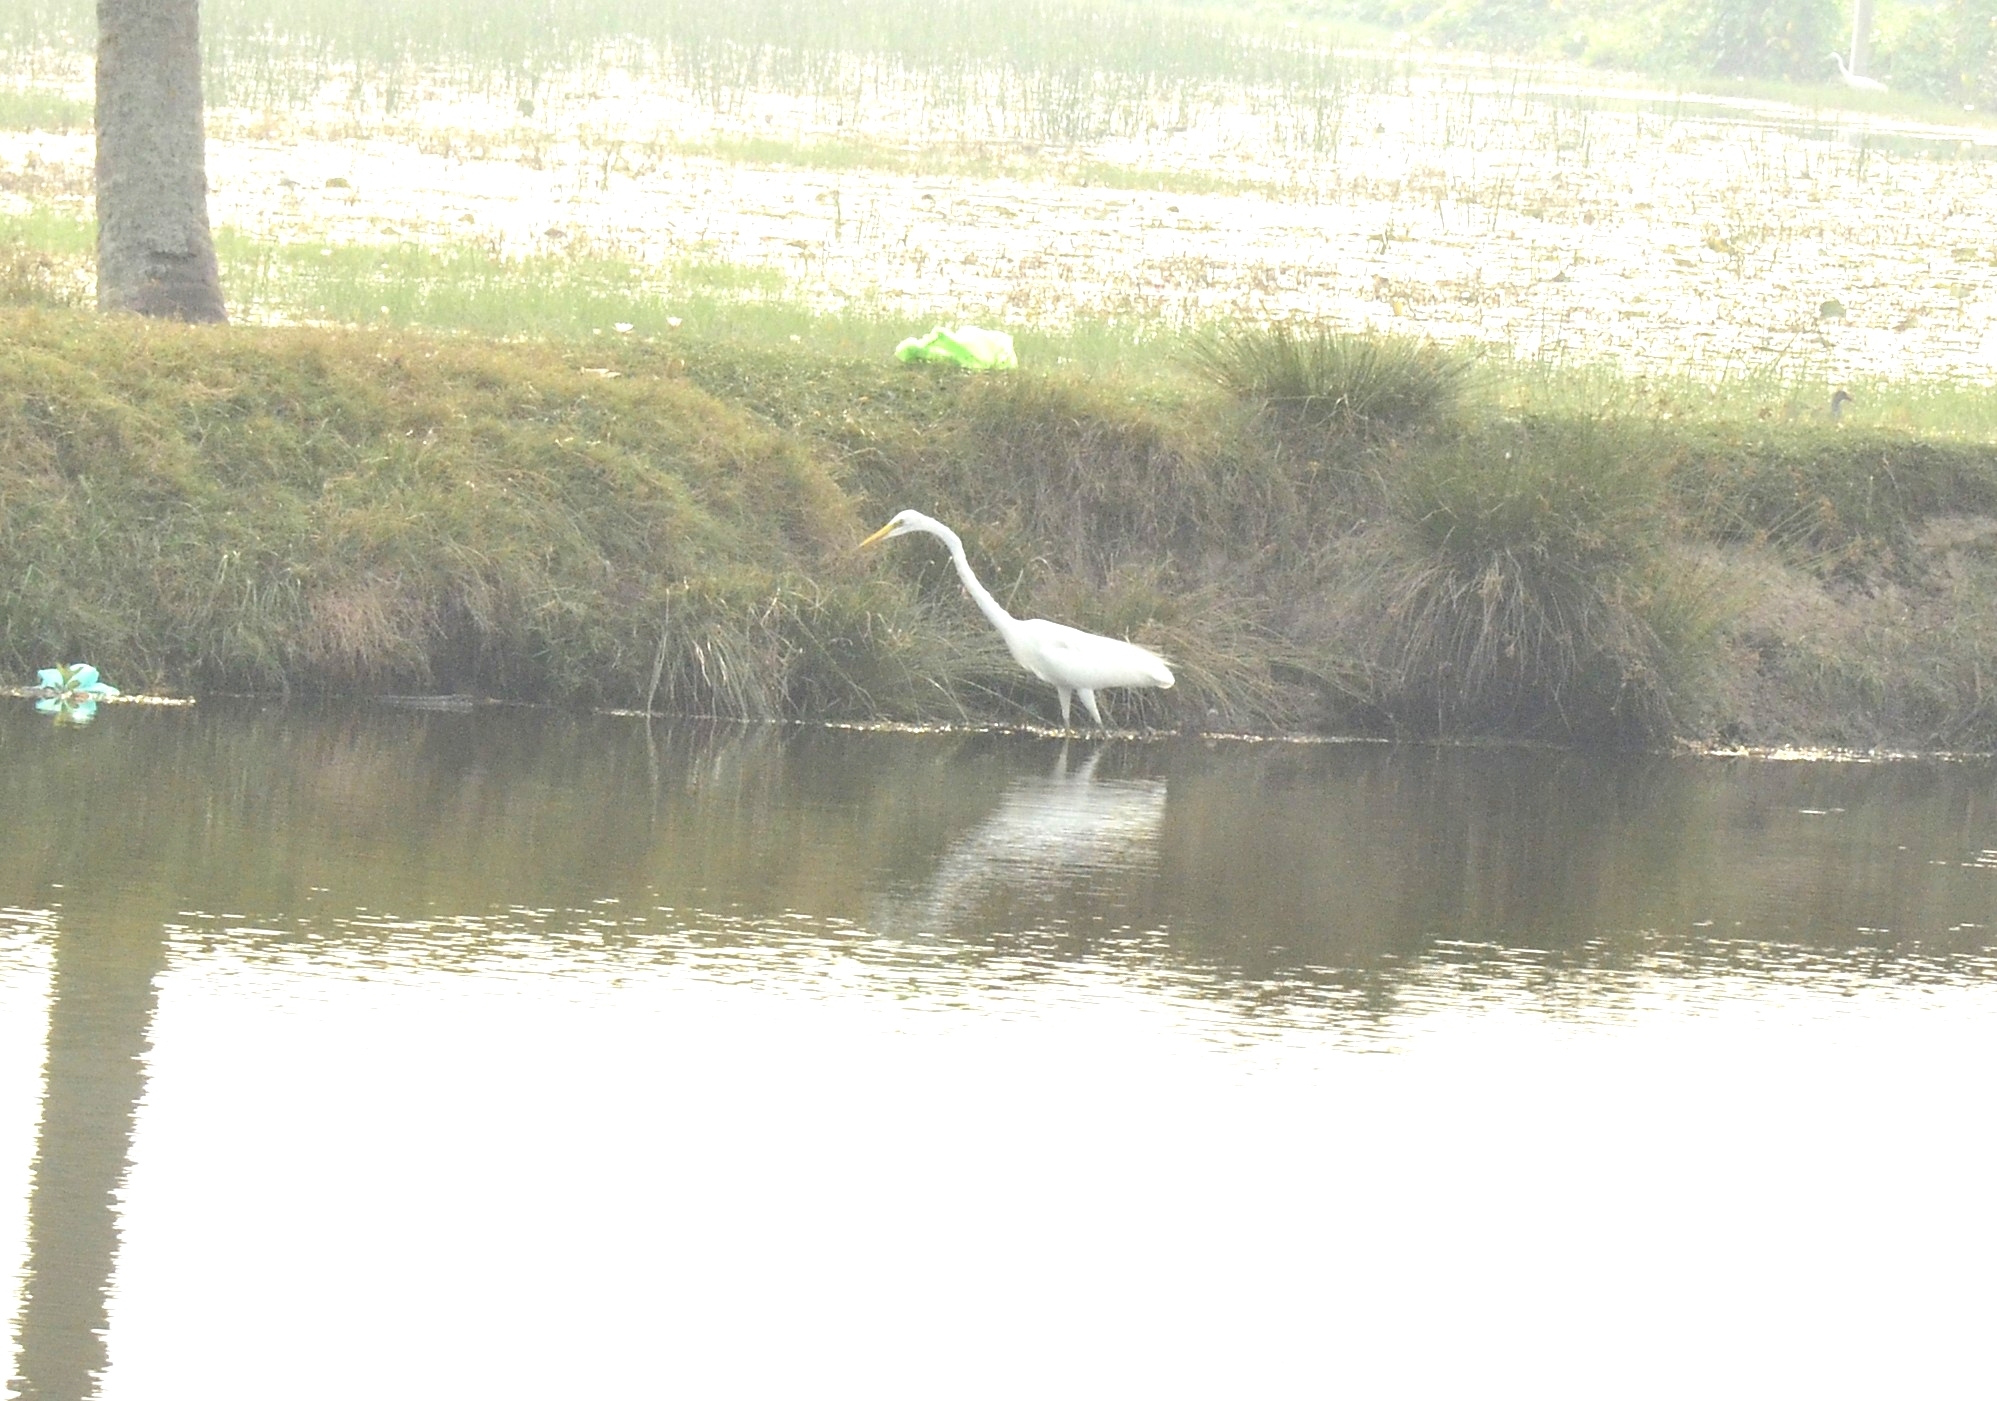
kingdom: Animalia
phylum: Chordata
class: Aves
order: Pelecaniformes
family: Ardeidae
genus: Ardea
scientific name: Ardea alba
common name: Great egret
